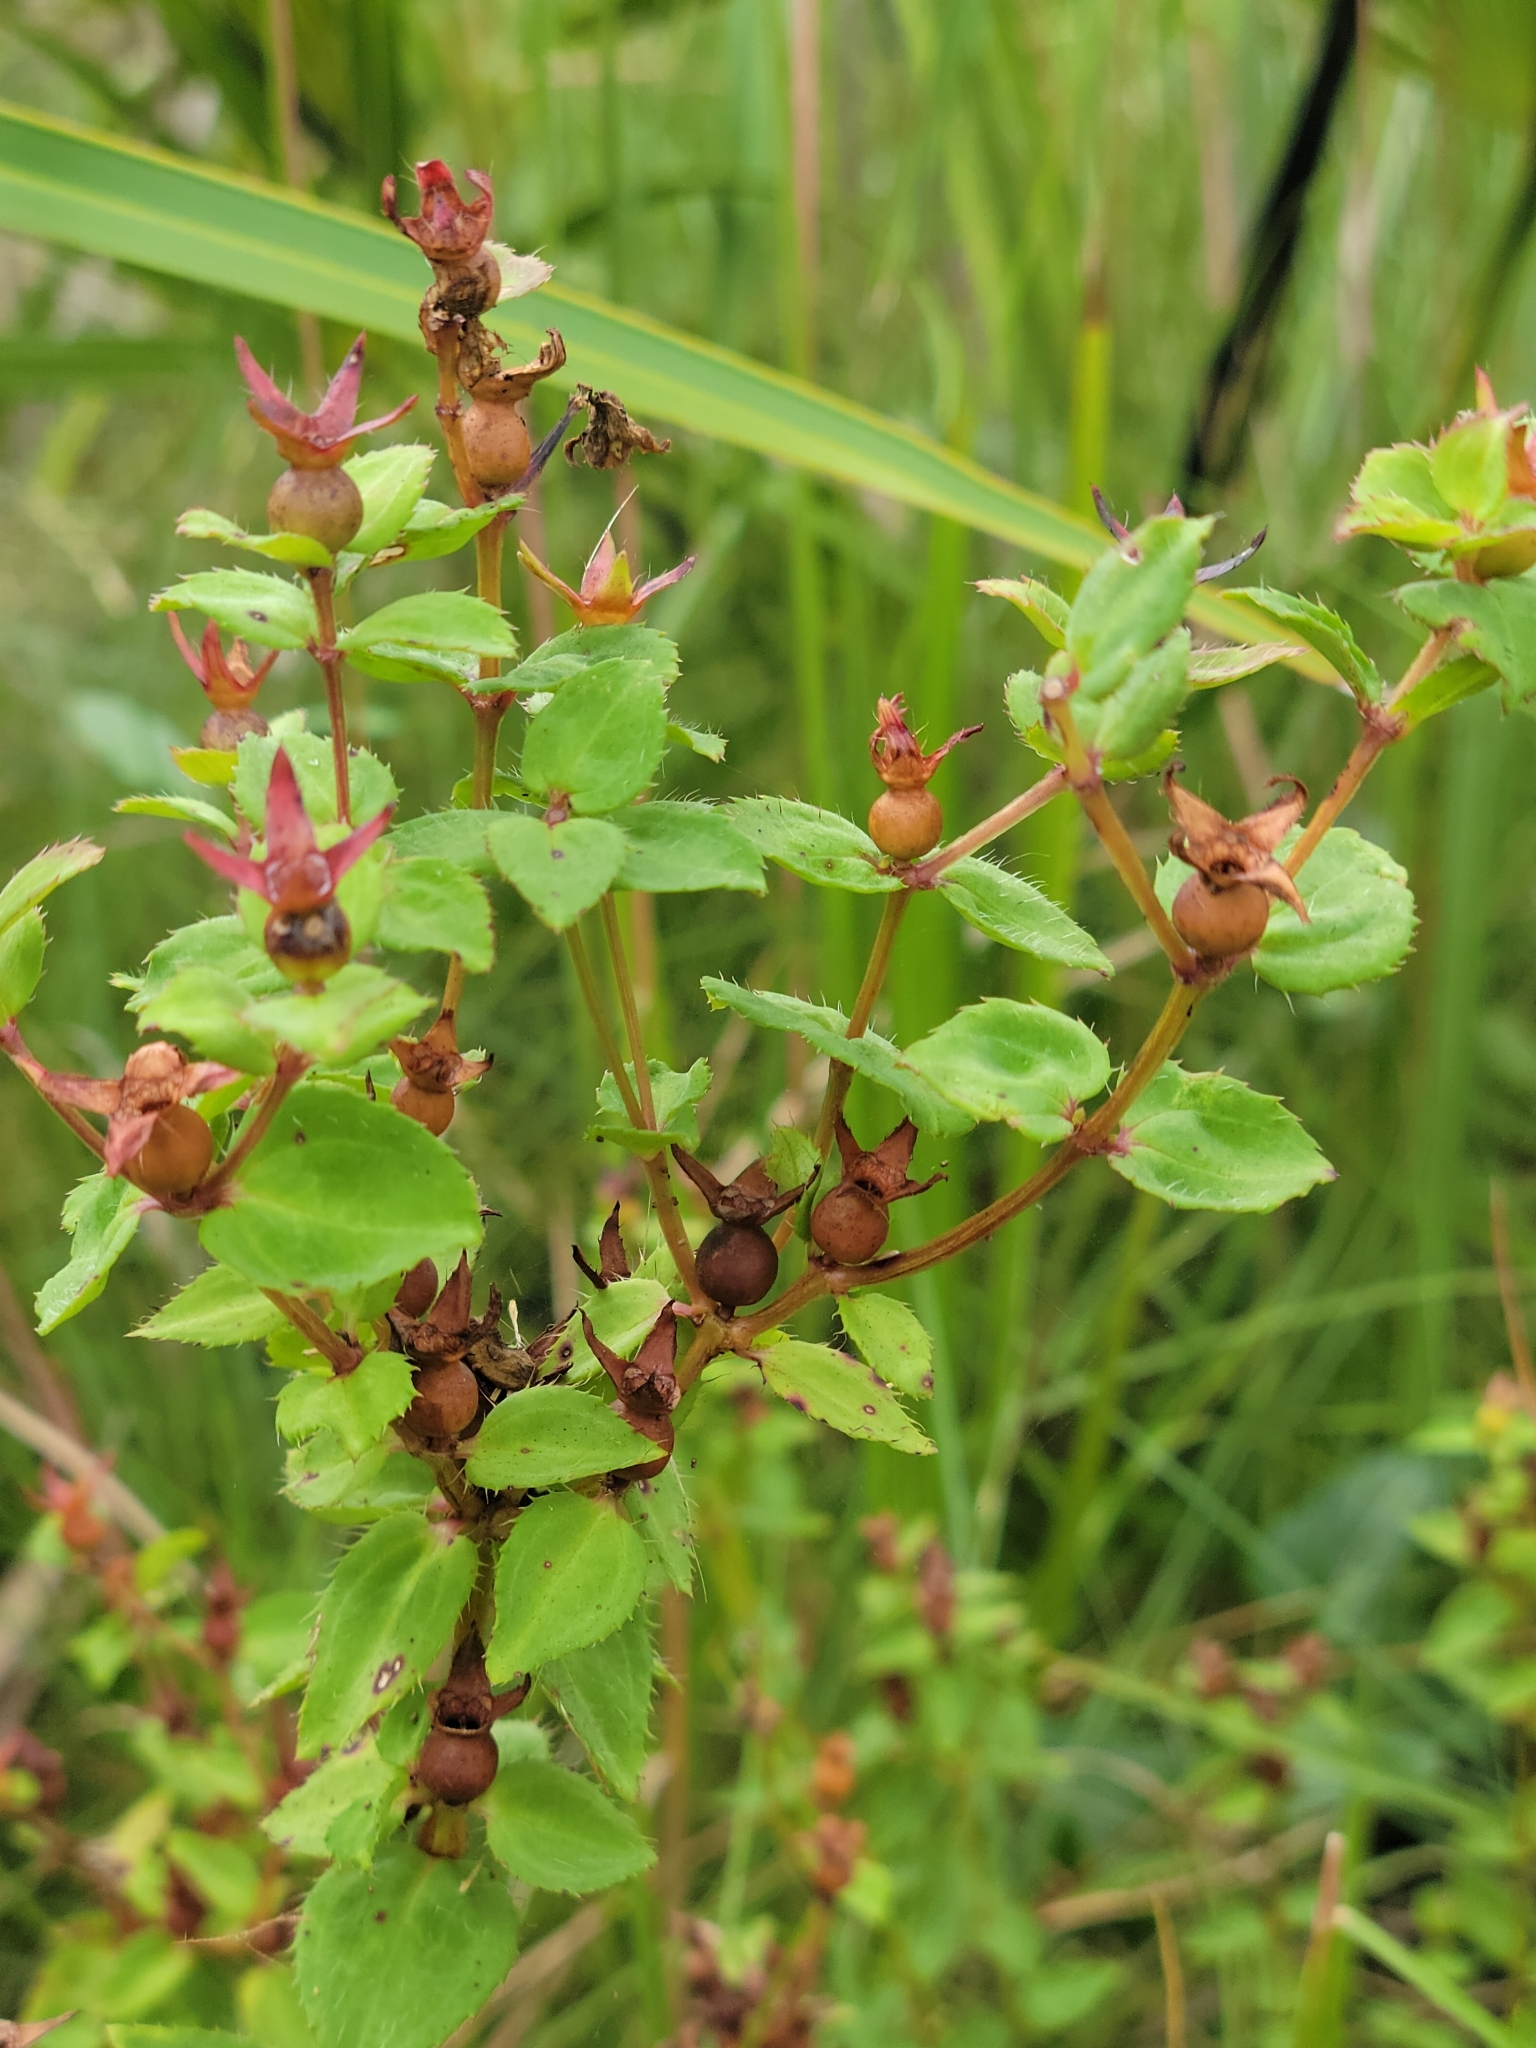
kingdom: Plantae
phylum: Tracheophyta
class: Magnoliopsida
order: Myrtales
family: Melastomataceae
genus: Rhexia
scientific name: Rhexia petiolata
